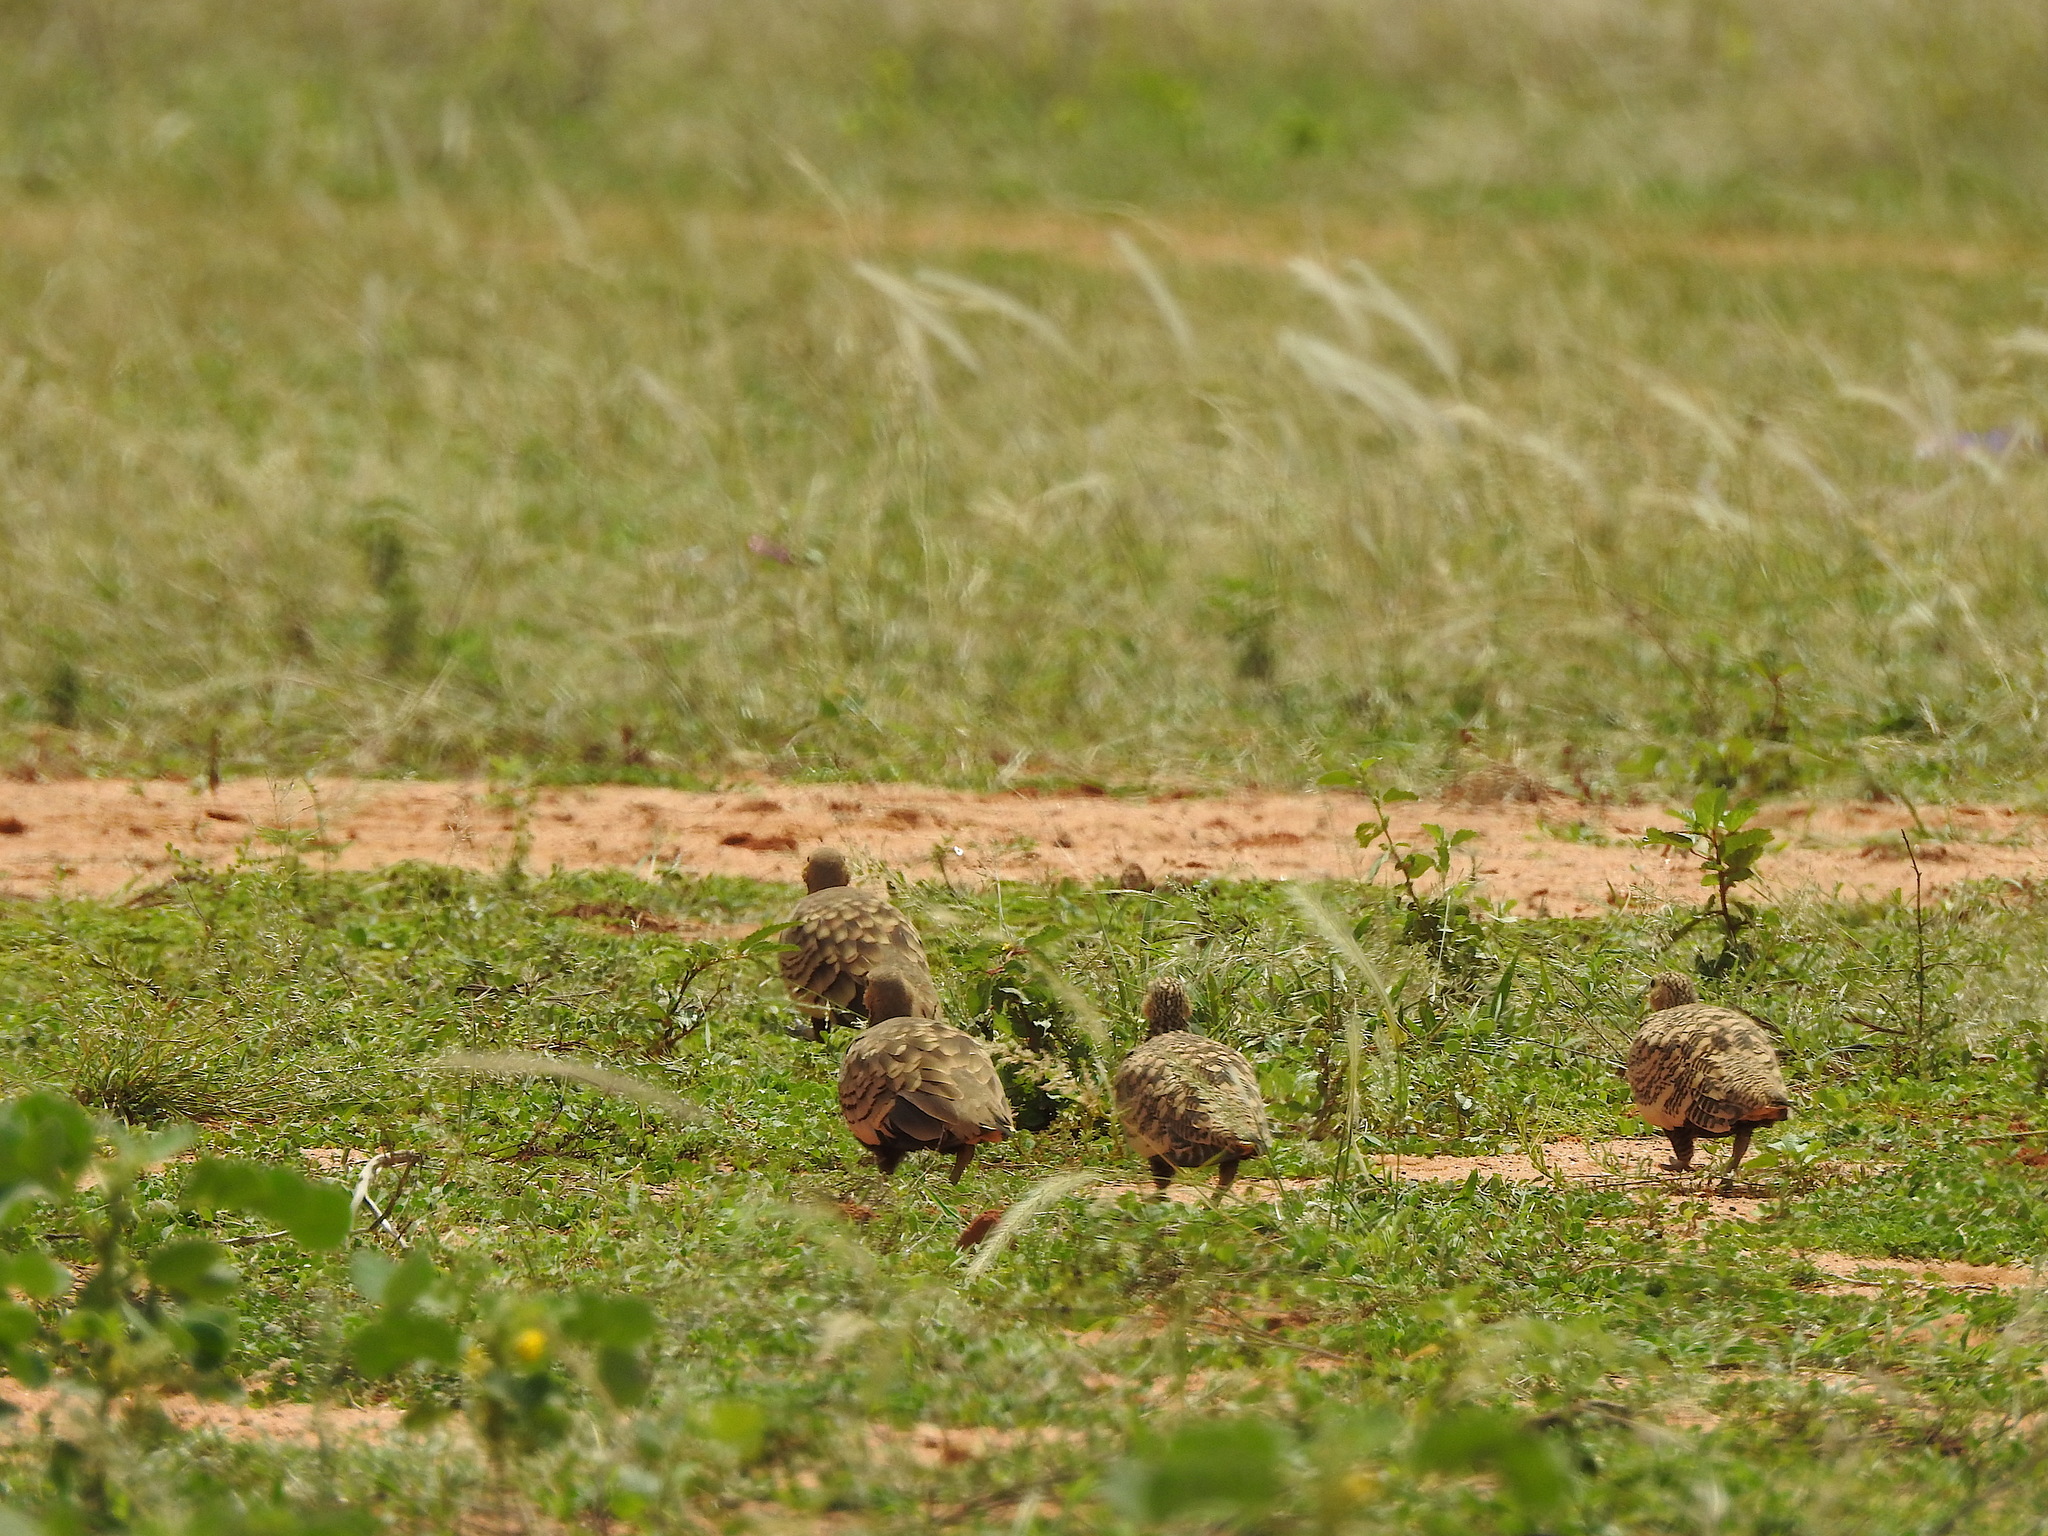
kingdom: Animalia
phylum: Chordata
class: Aves
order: Pteroclidiformes
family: Pteroclididae
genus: Pterocles
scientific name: Pterocles exustus
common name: Chestnut-bellied sandgrouse
